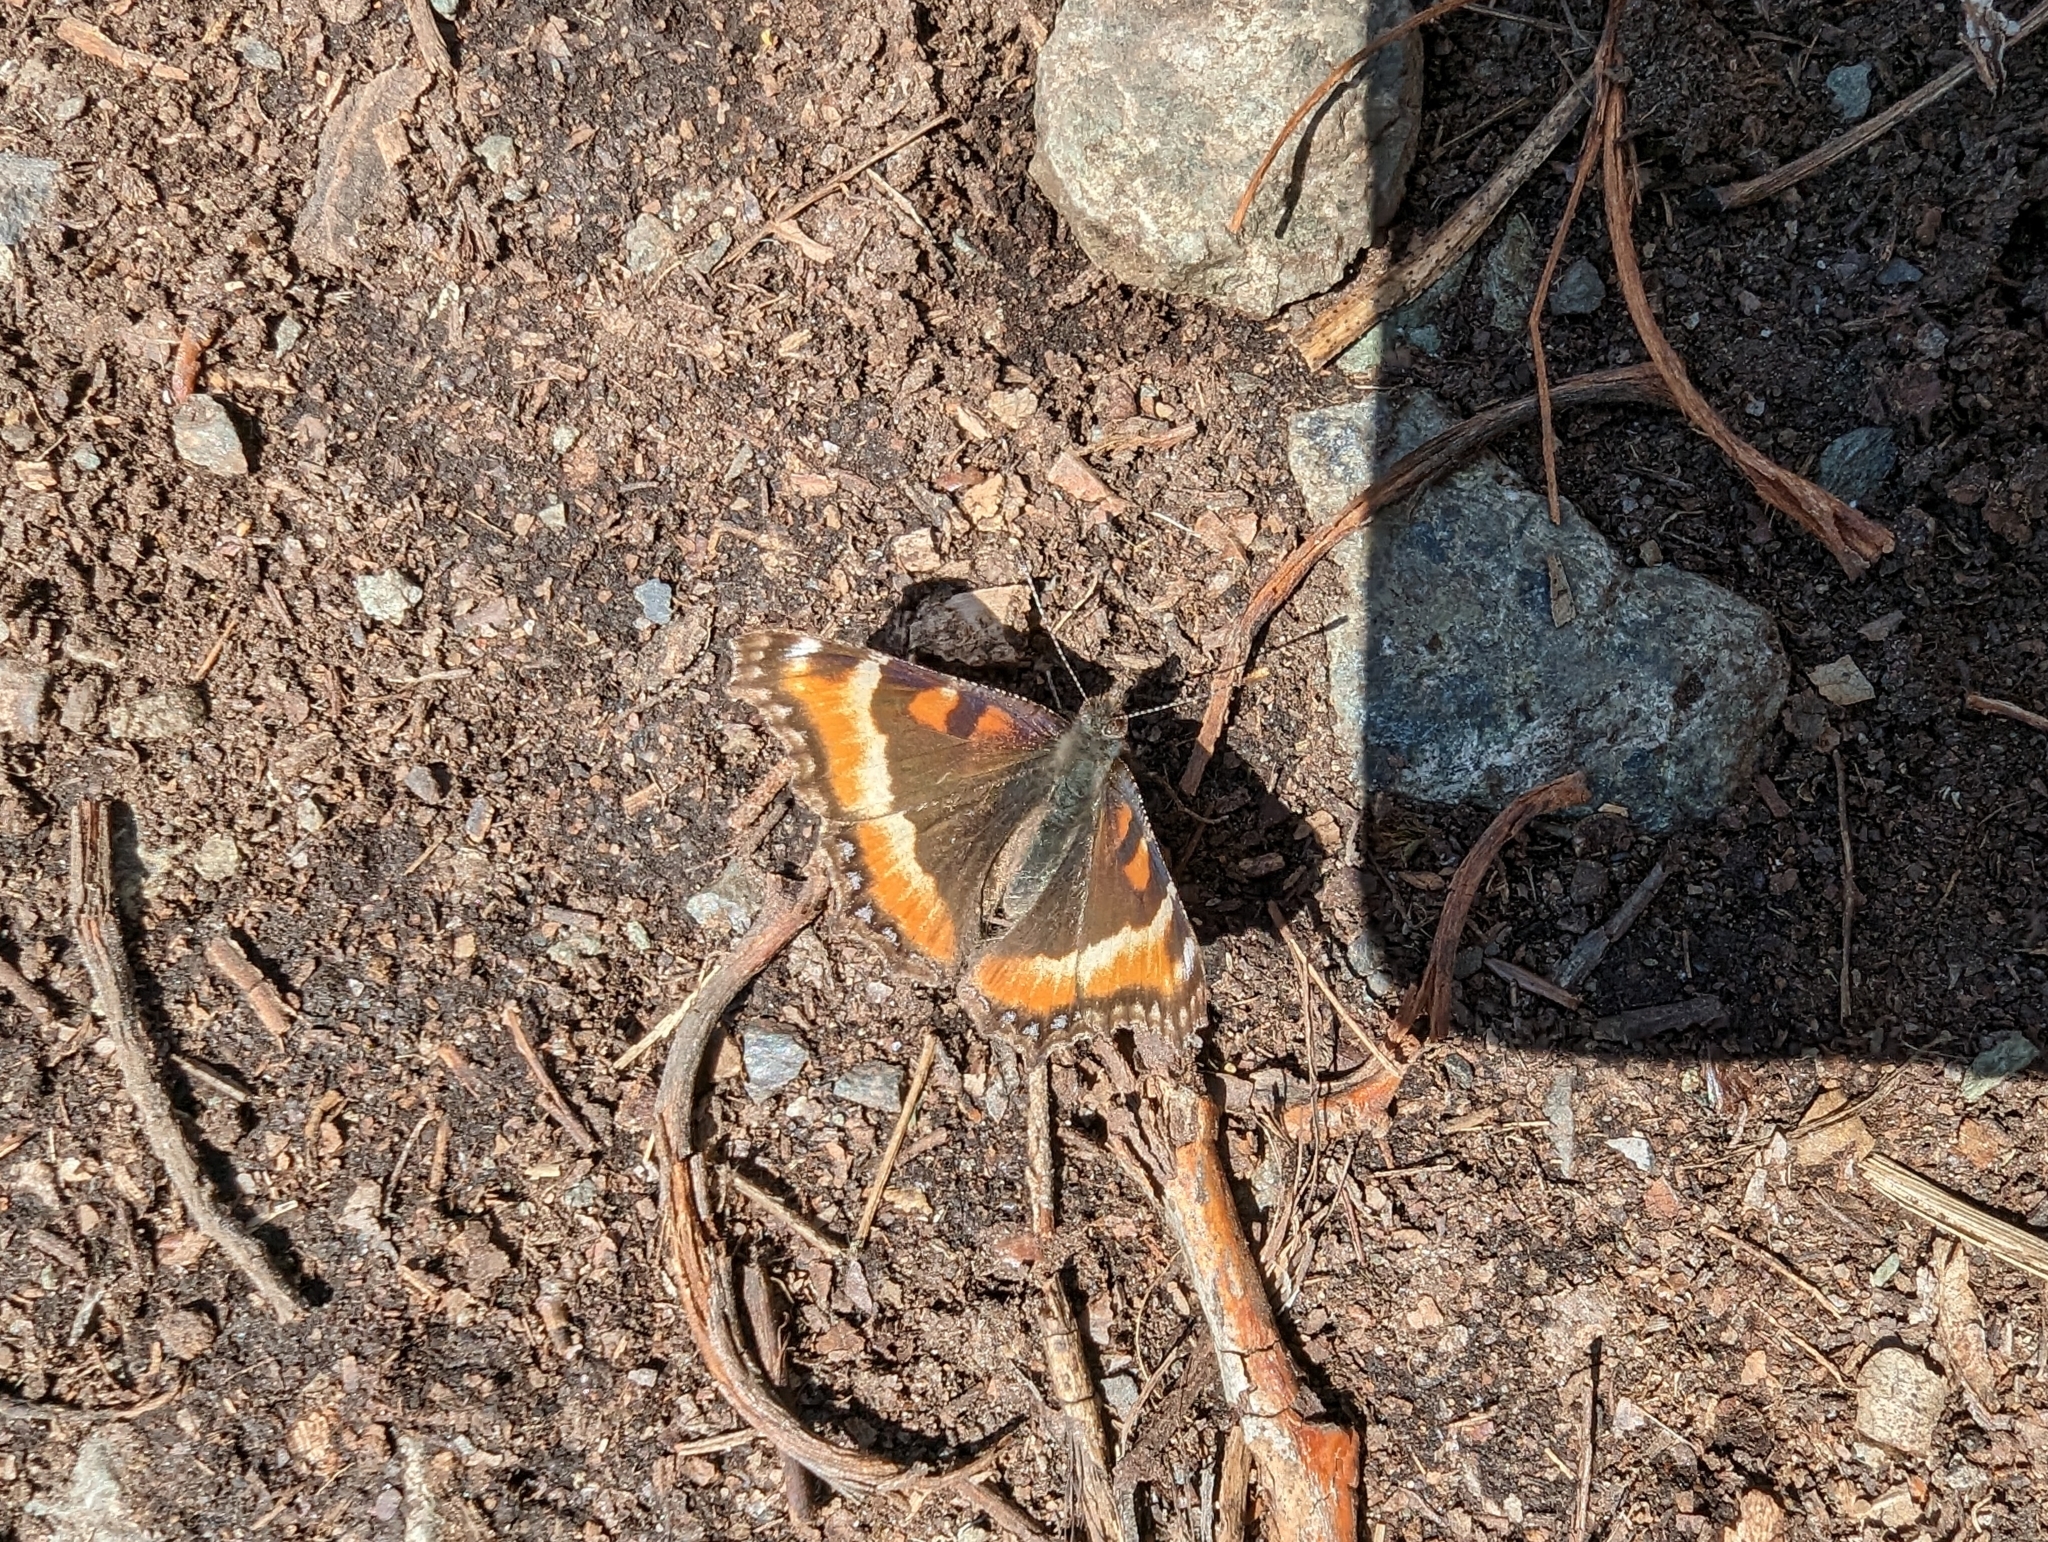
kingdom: Animalia
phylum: Arthropoda
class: Insecta
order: Lepidoptera
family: Nymphalidae
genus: Aglais
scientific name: Aglais milberti
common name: Milbert's tortoiseshell
